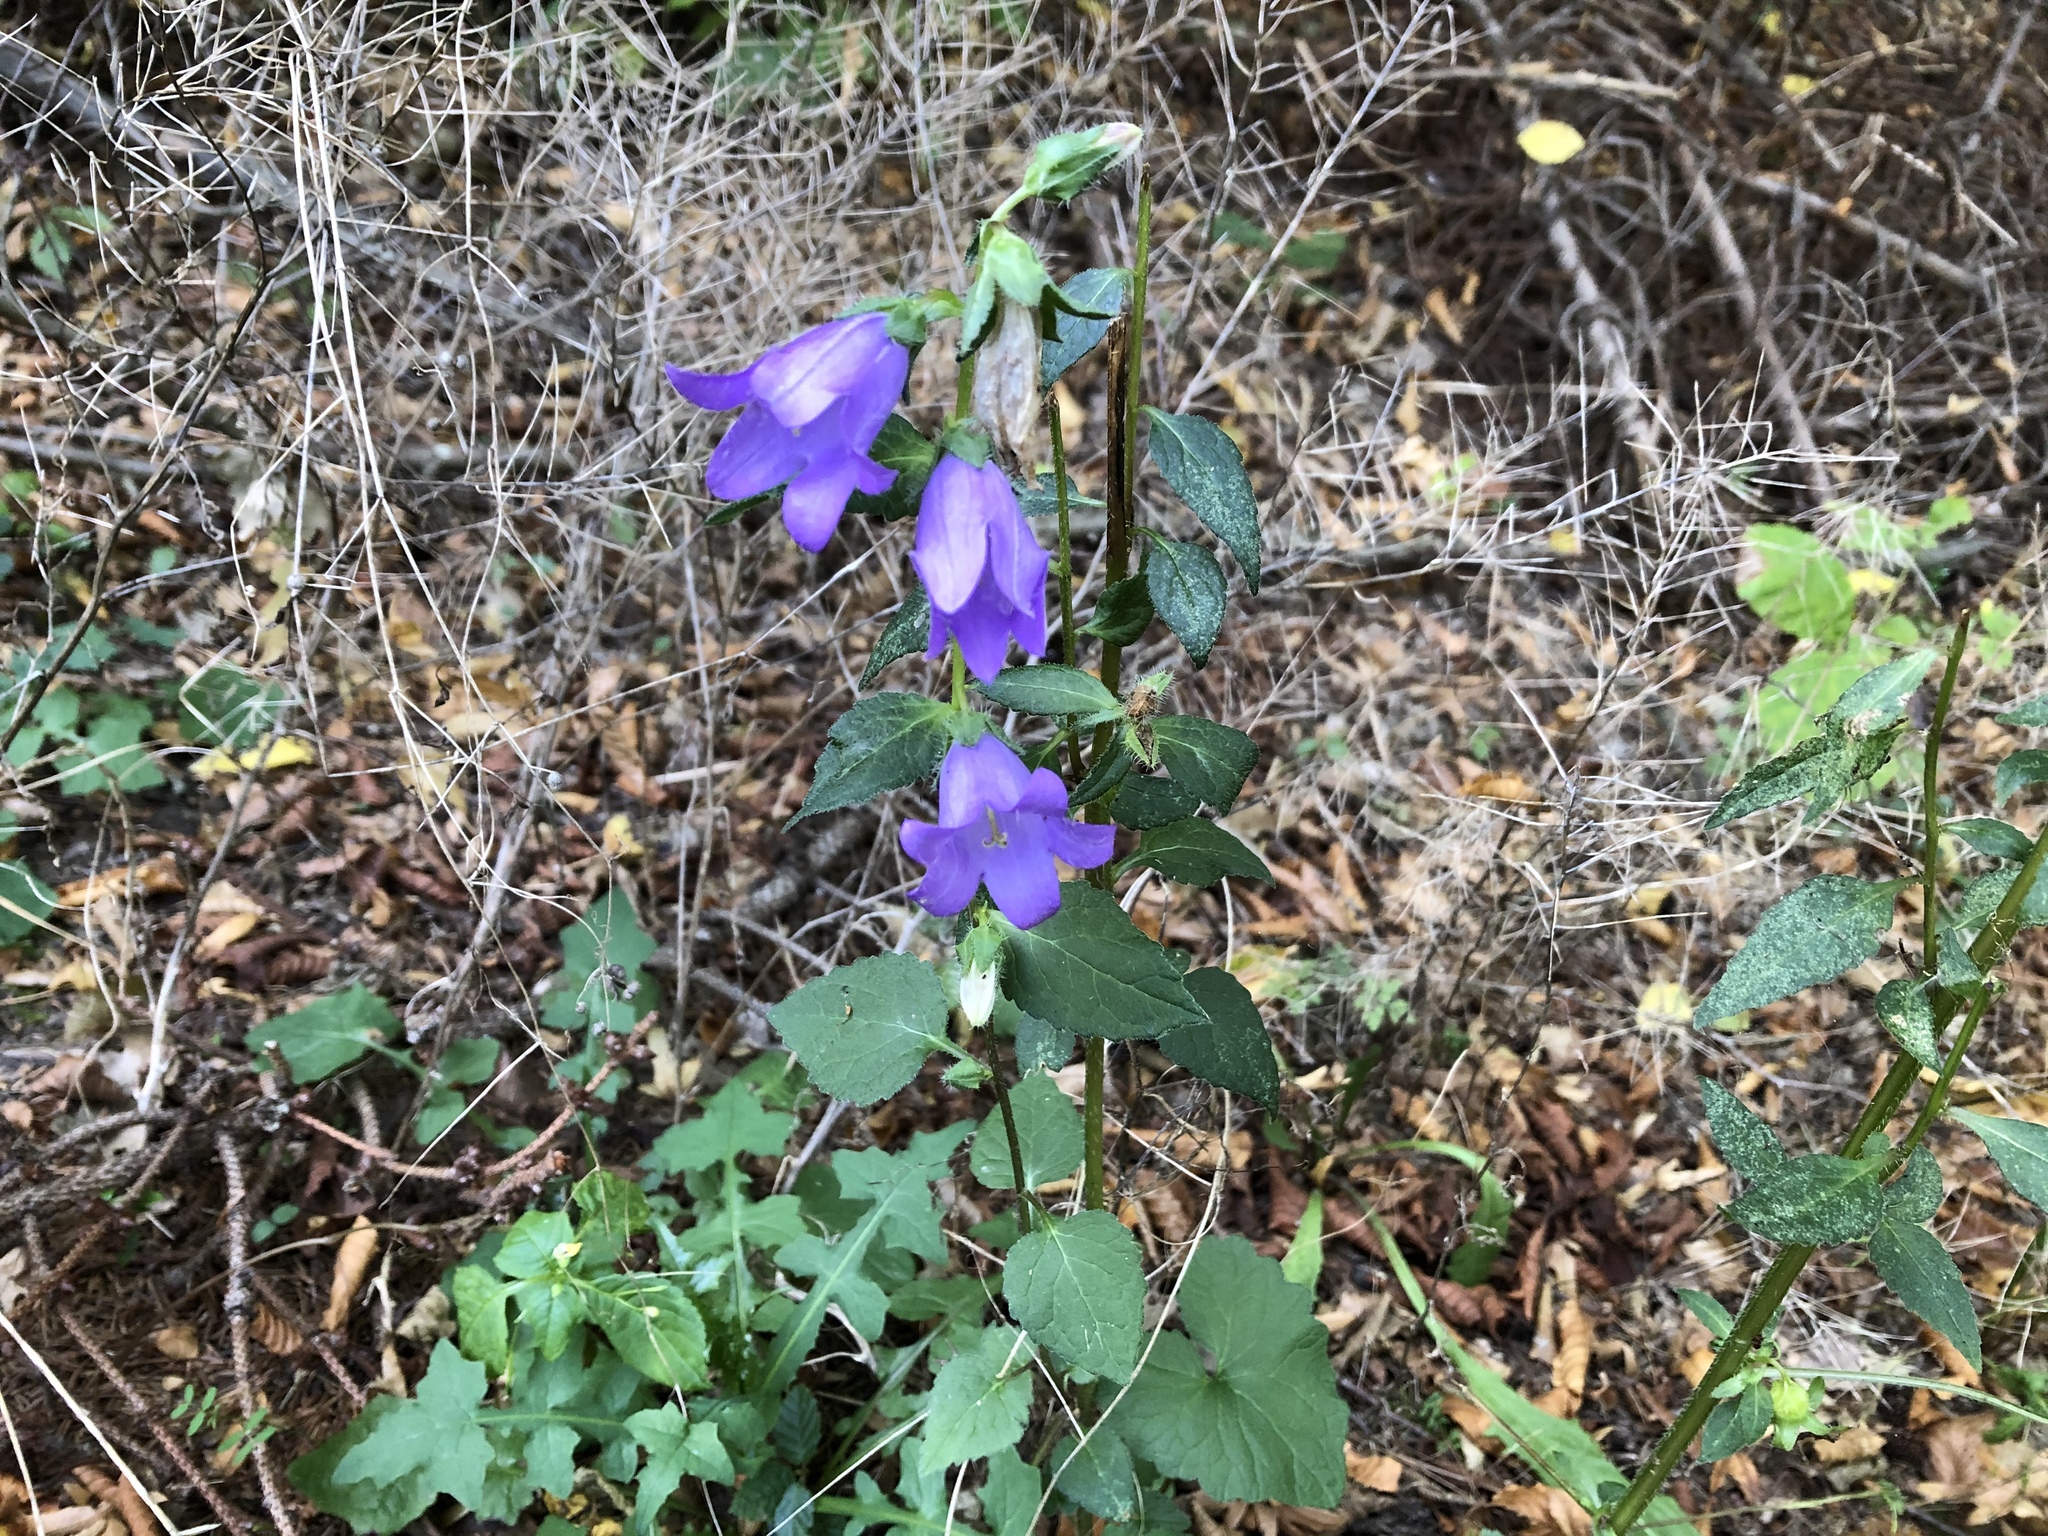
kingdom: Plantae
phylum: Tracheophyta
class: Magnoliopsida
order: Asterales
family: Campanulaceae
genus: Campanula
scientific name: Campanula trachelium
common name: Nettle-leaved bellflower
